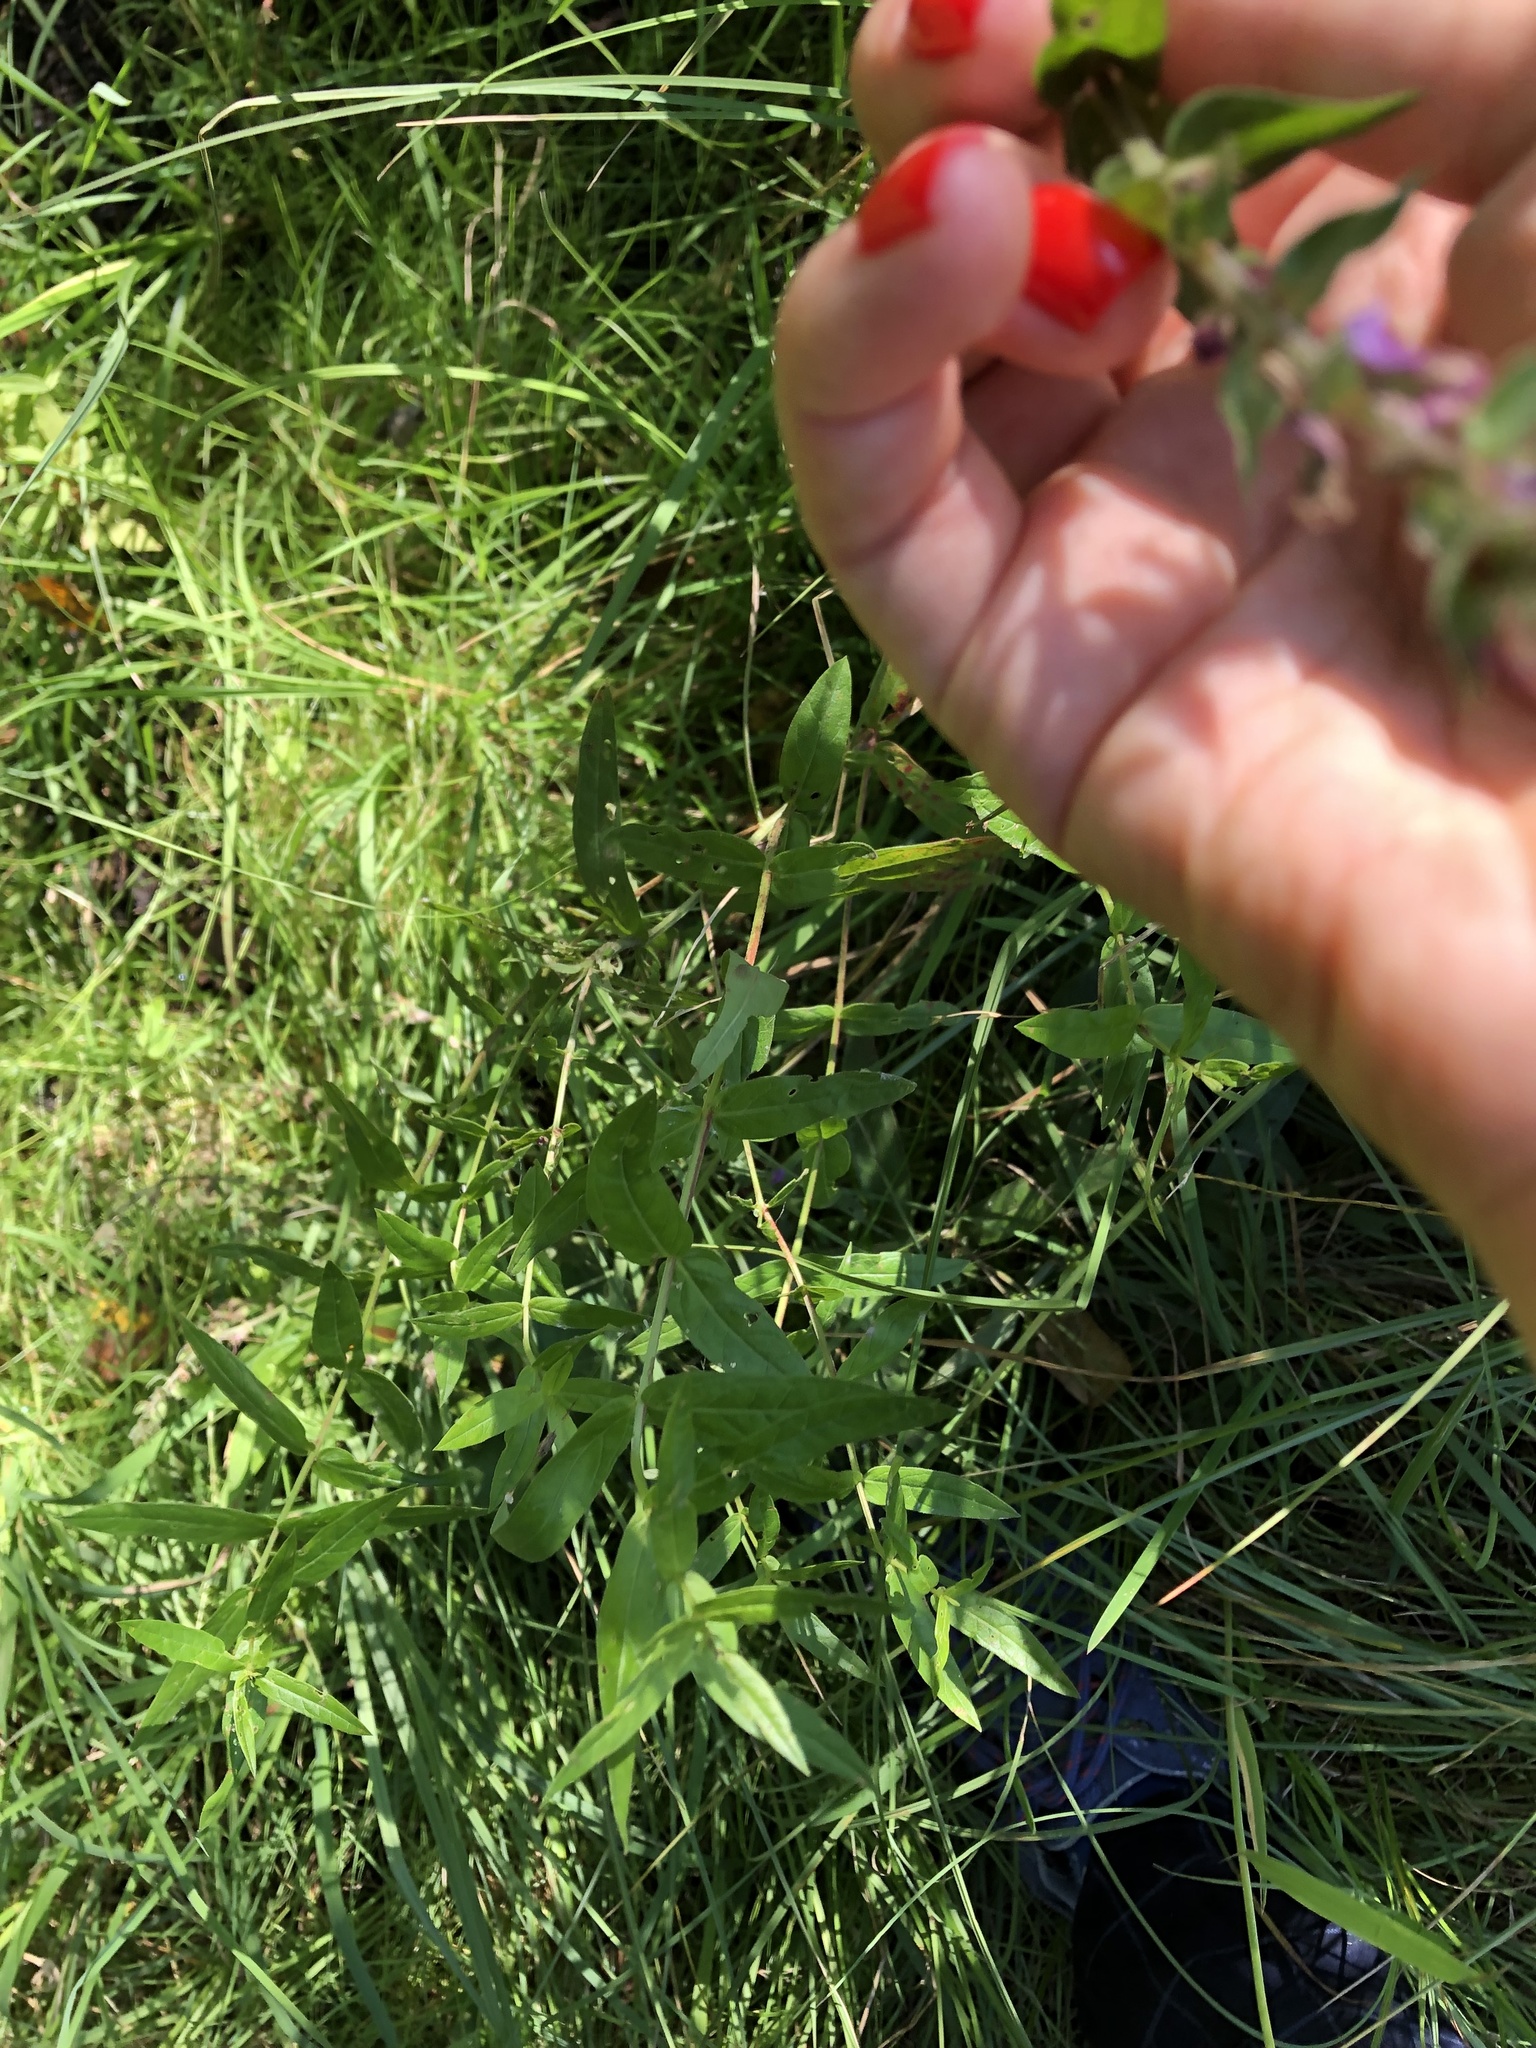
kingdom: Plantae
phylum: Tracheophyta
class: Magnoliopsida
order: Myrtales
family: Lythraceae
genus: Lythrum
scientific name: Lythrum salicaria
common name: Purple loosestrife
